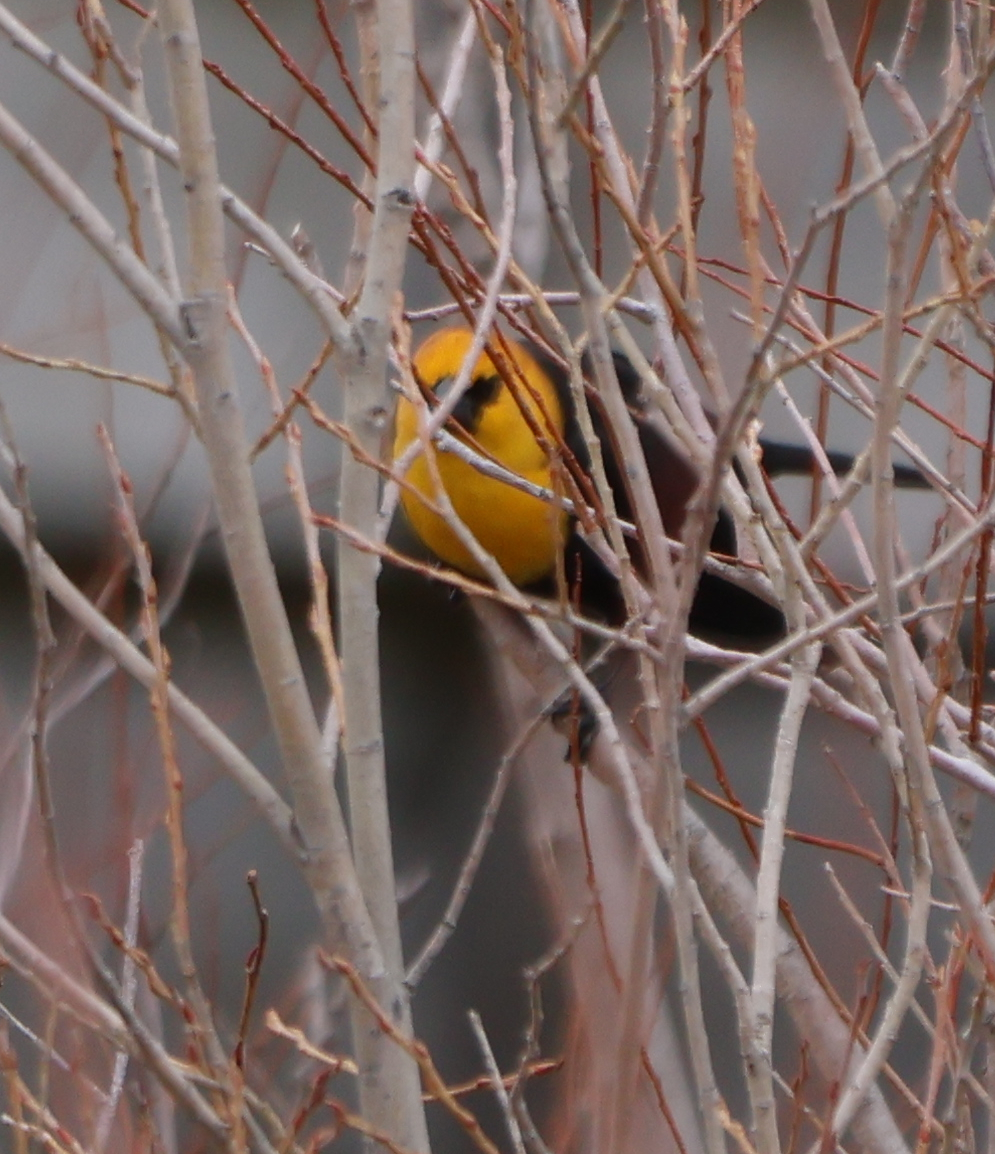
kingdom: Animalia
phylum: Chordata
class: Aves
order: Passeriformes
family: Icteridae
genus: Xanthocephalus
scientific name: Xanthocephalus xanthocephalus
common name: Yellow-headed blackbird
